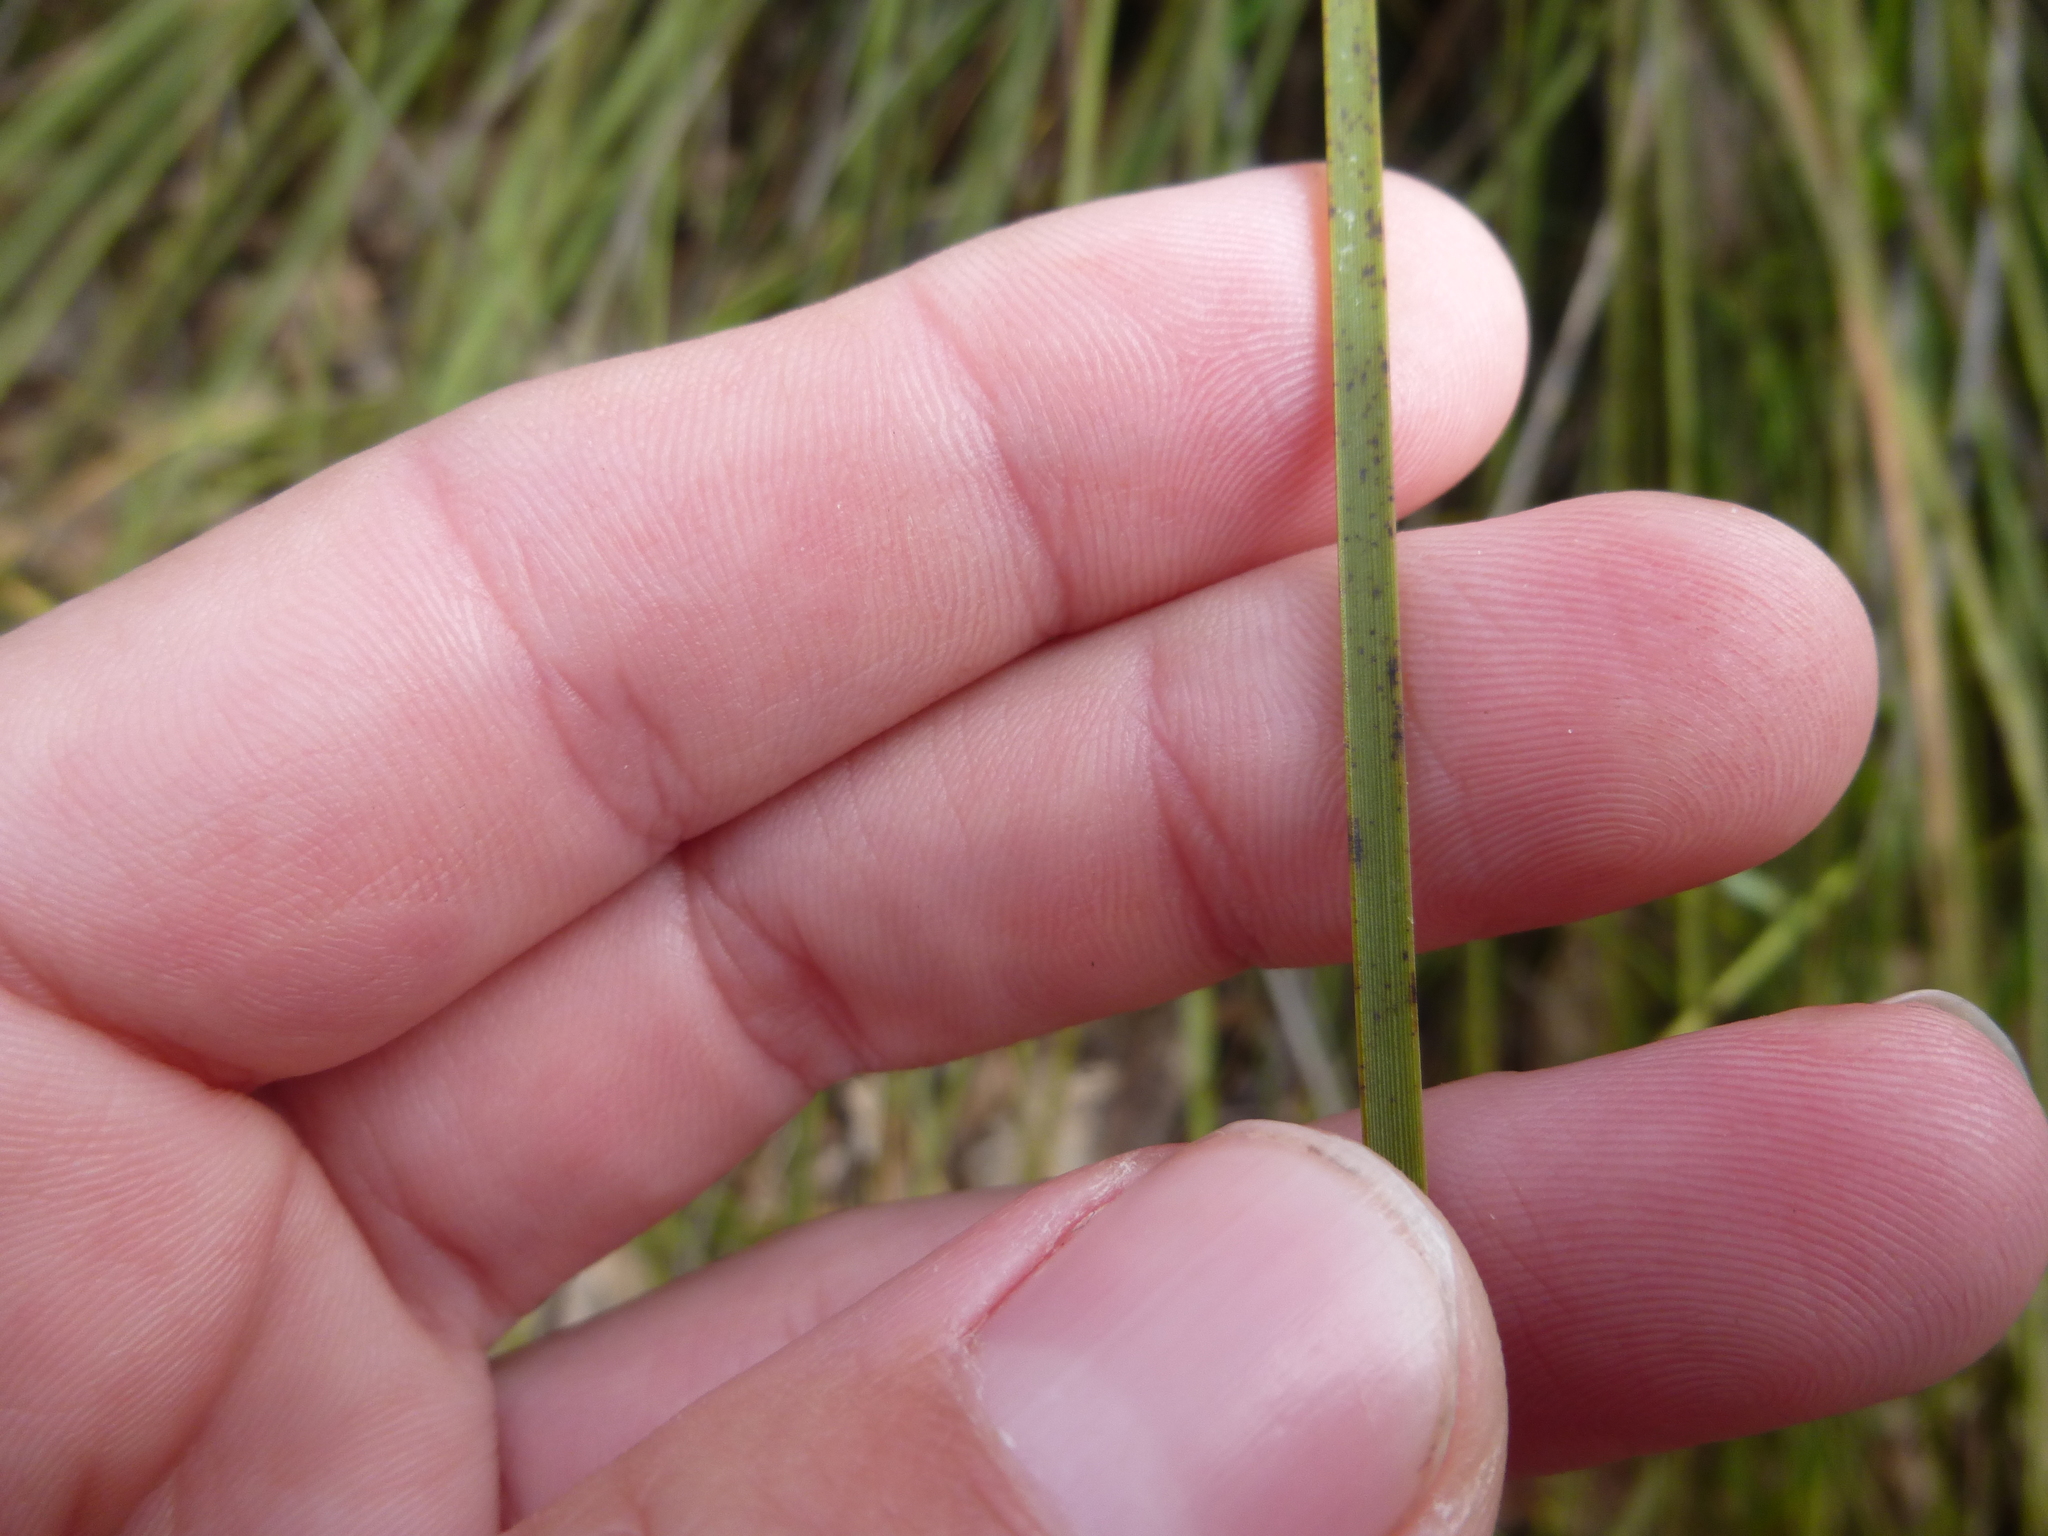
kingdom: Plantae
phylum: Tracheophyta
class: Liliopsida
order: Asparagales
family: Asphodelaceae
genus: Xanthorrhoea
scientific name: Xanthorrhoea minor
